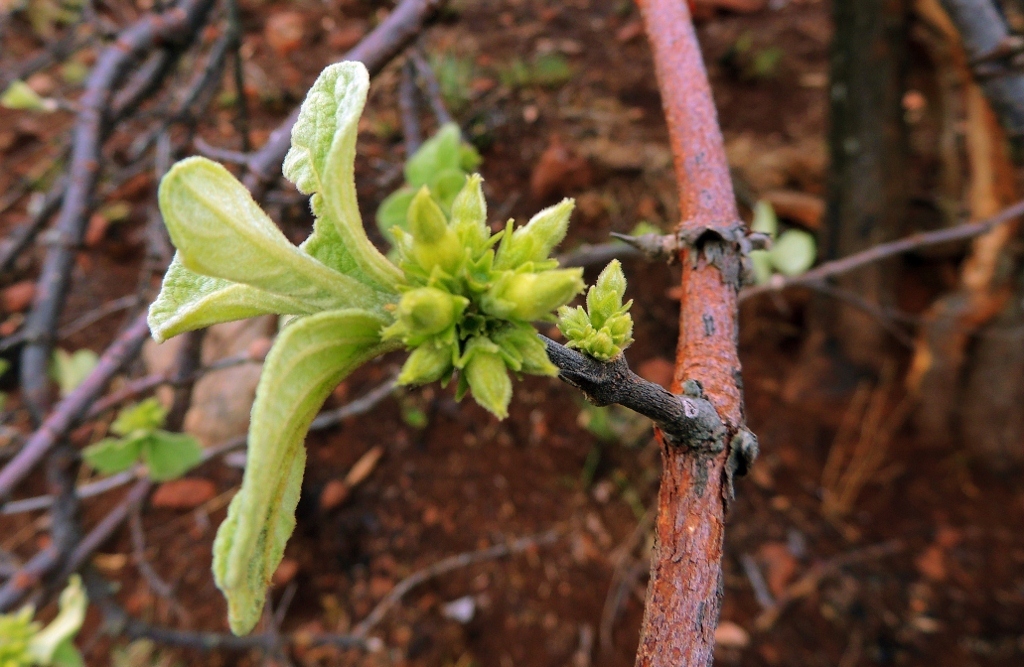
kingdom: Plantae
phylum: Tracheophyta
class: Magnoliopsida
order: Santalales
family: Loranthaceae
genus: Globimetula
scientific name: Globimetula mweroensis
